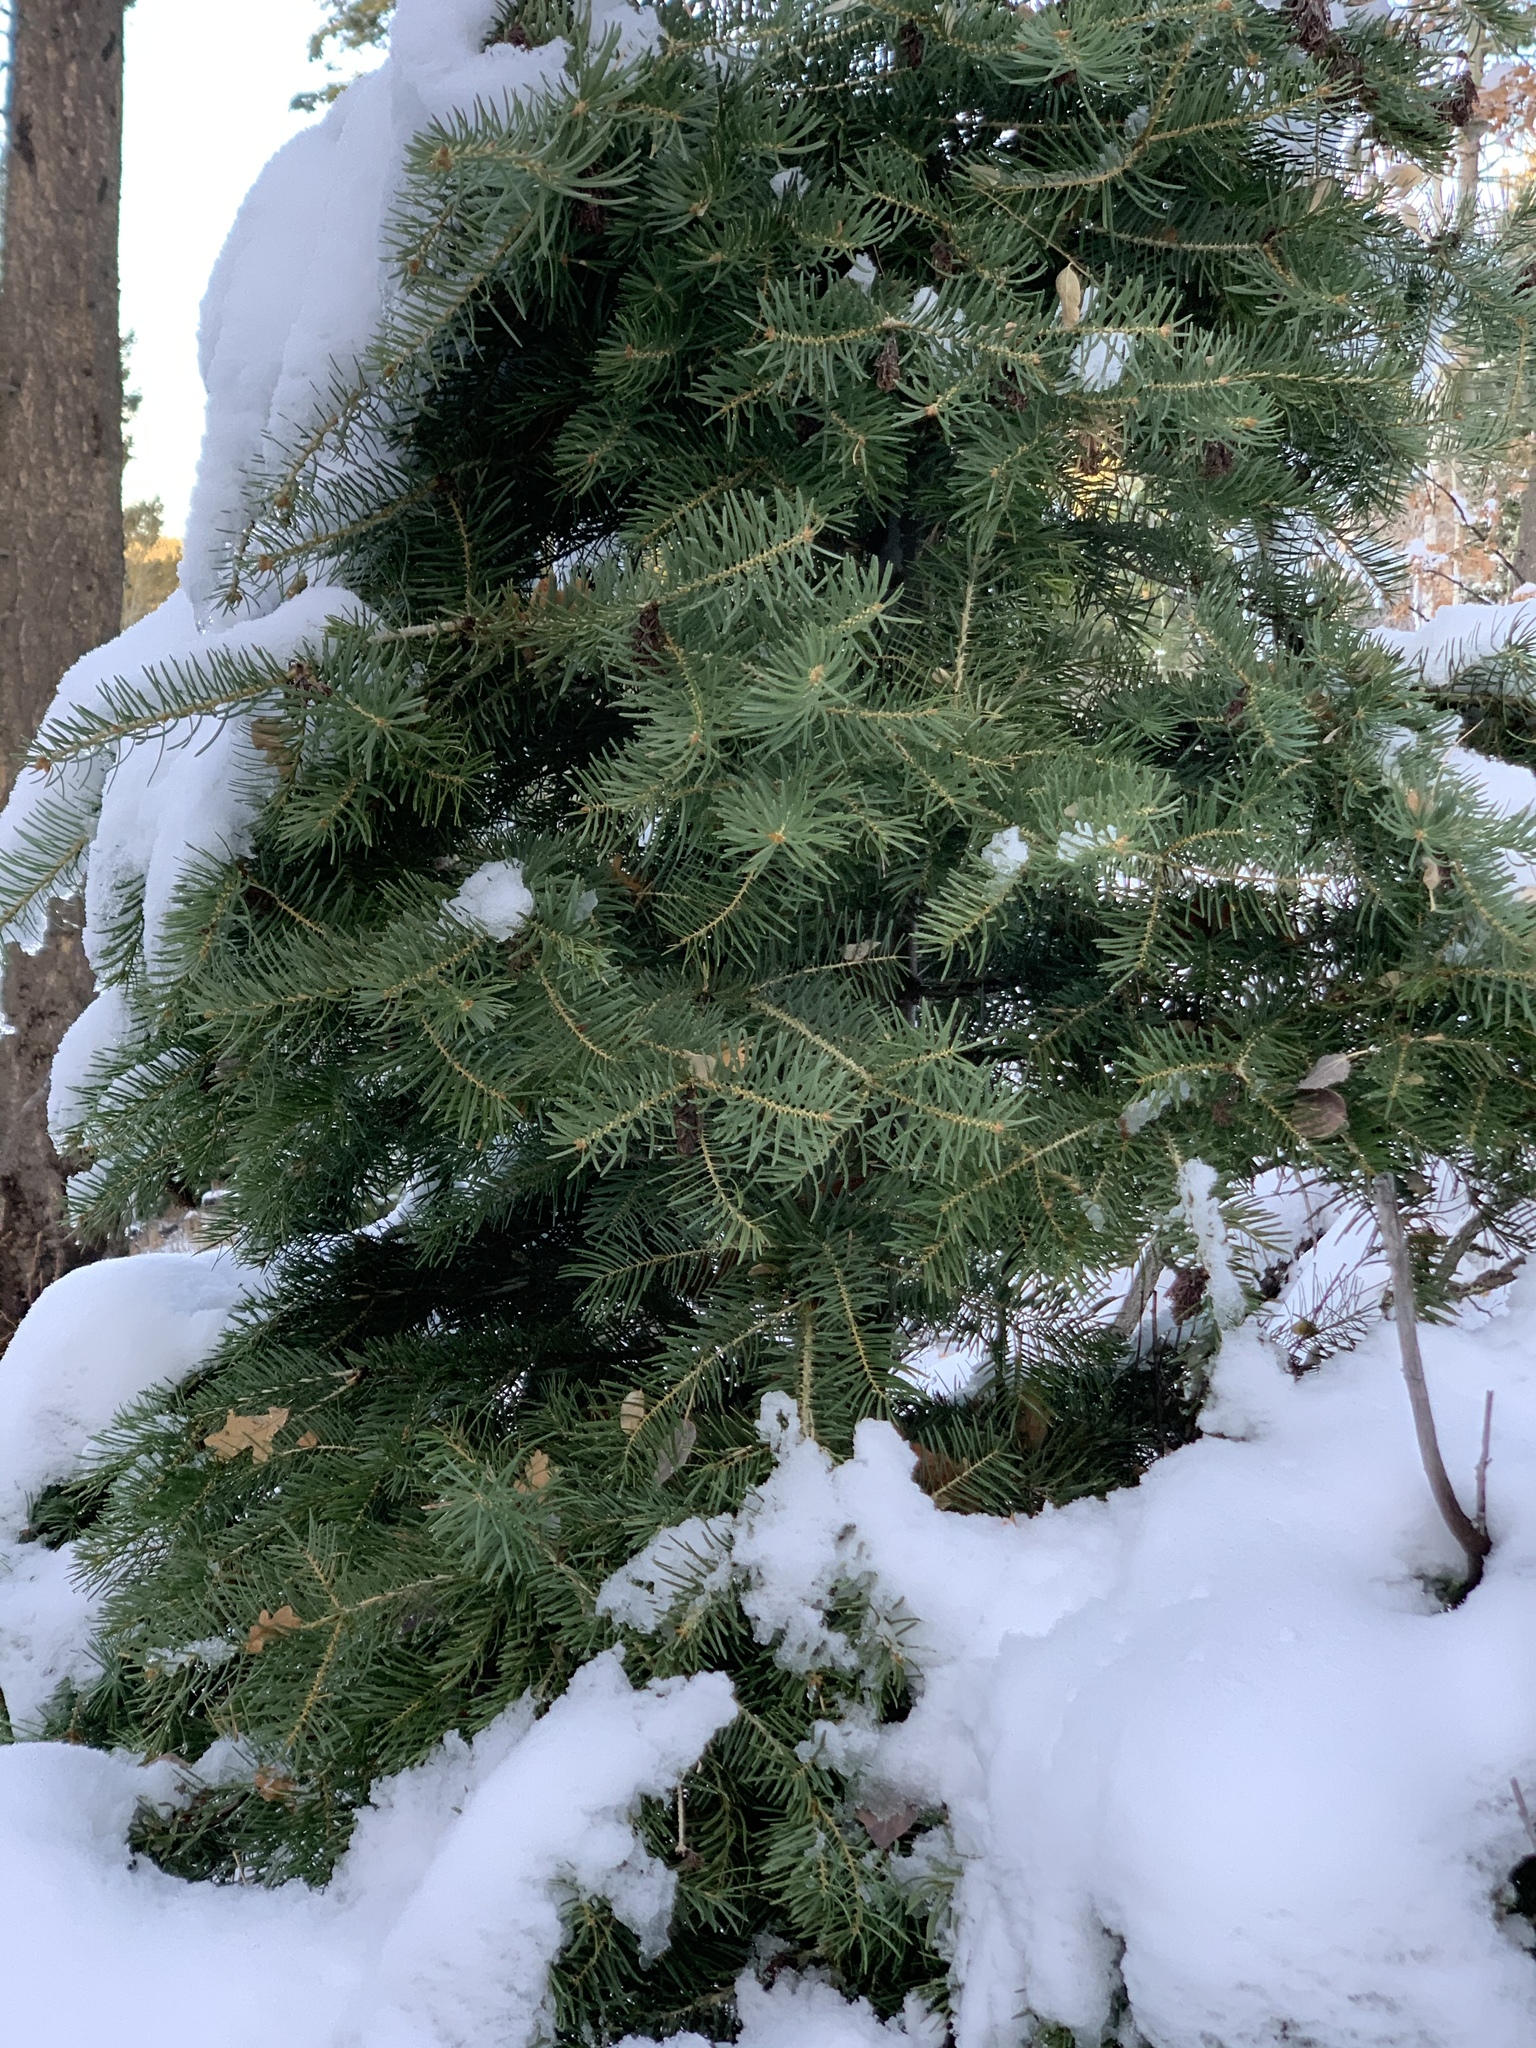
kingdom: Plantae
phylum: Tracheophyta
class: Pinopsida
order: Pinales
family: Pinaceae
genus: Abies
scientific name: Abies concolor
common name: Colorado fir
